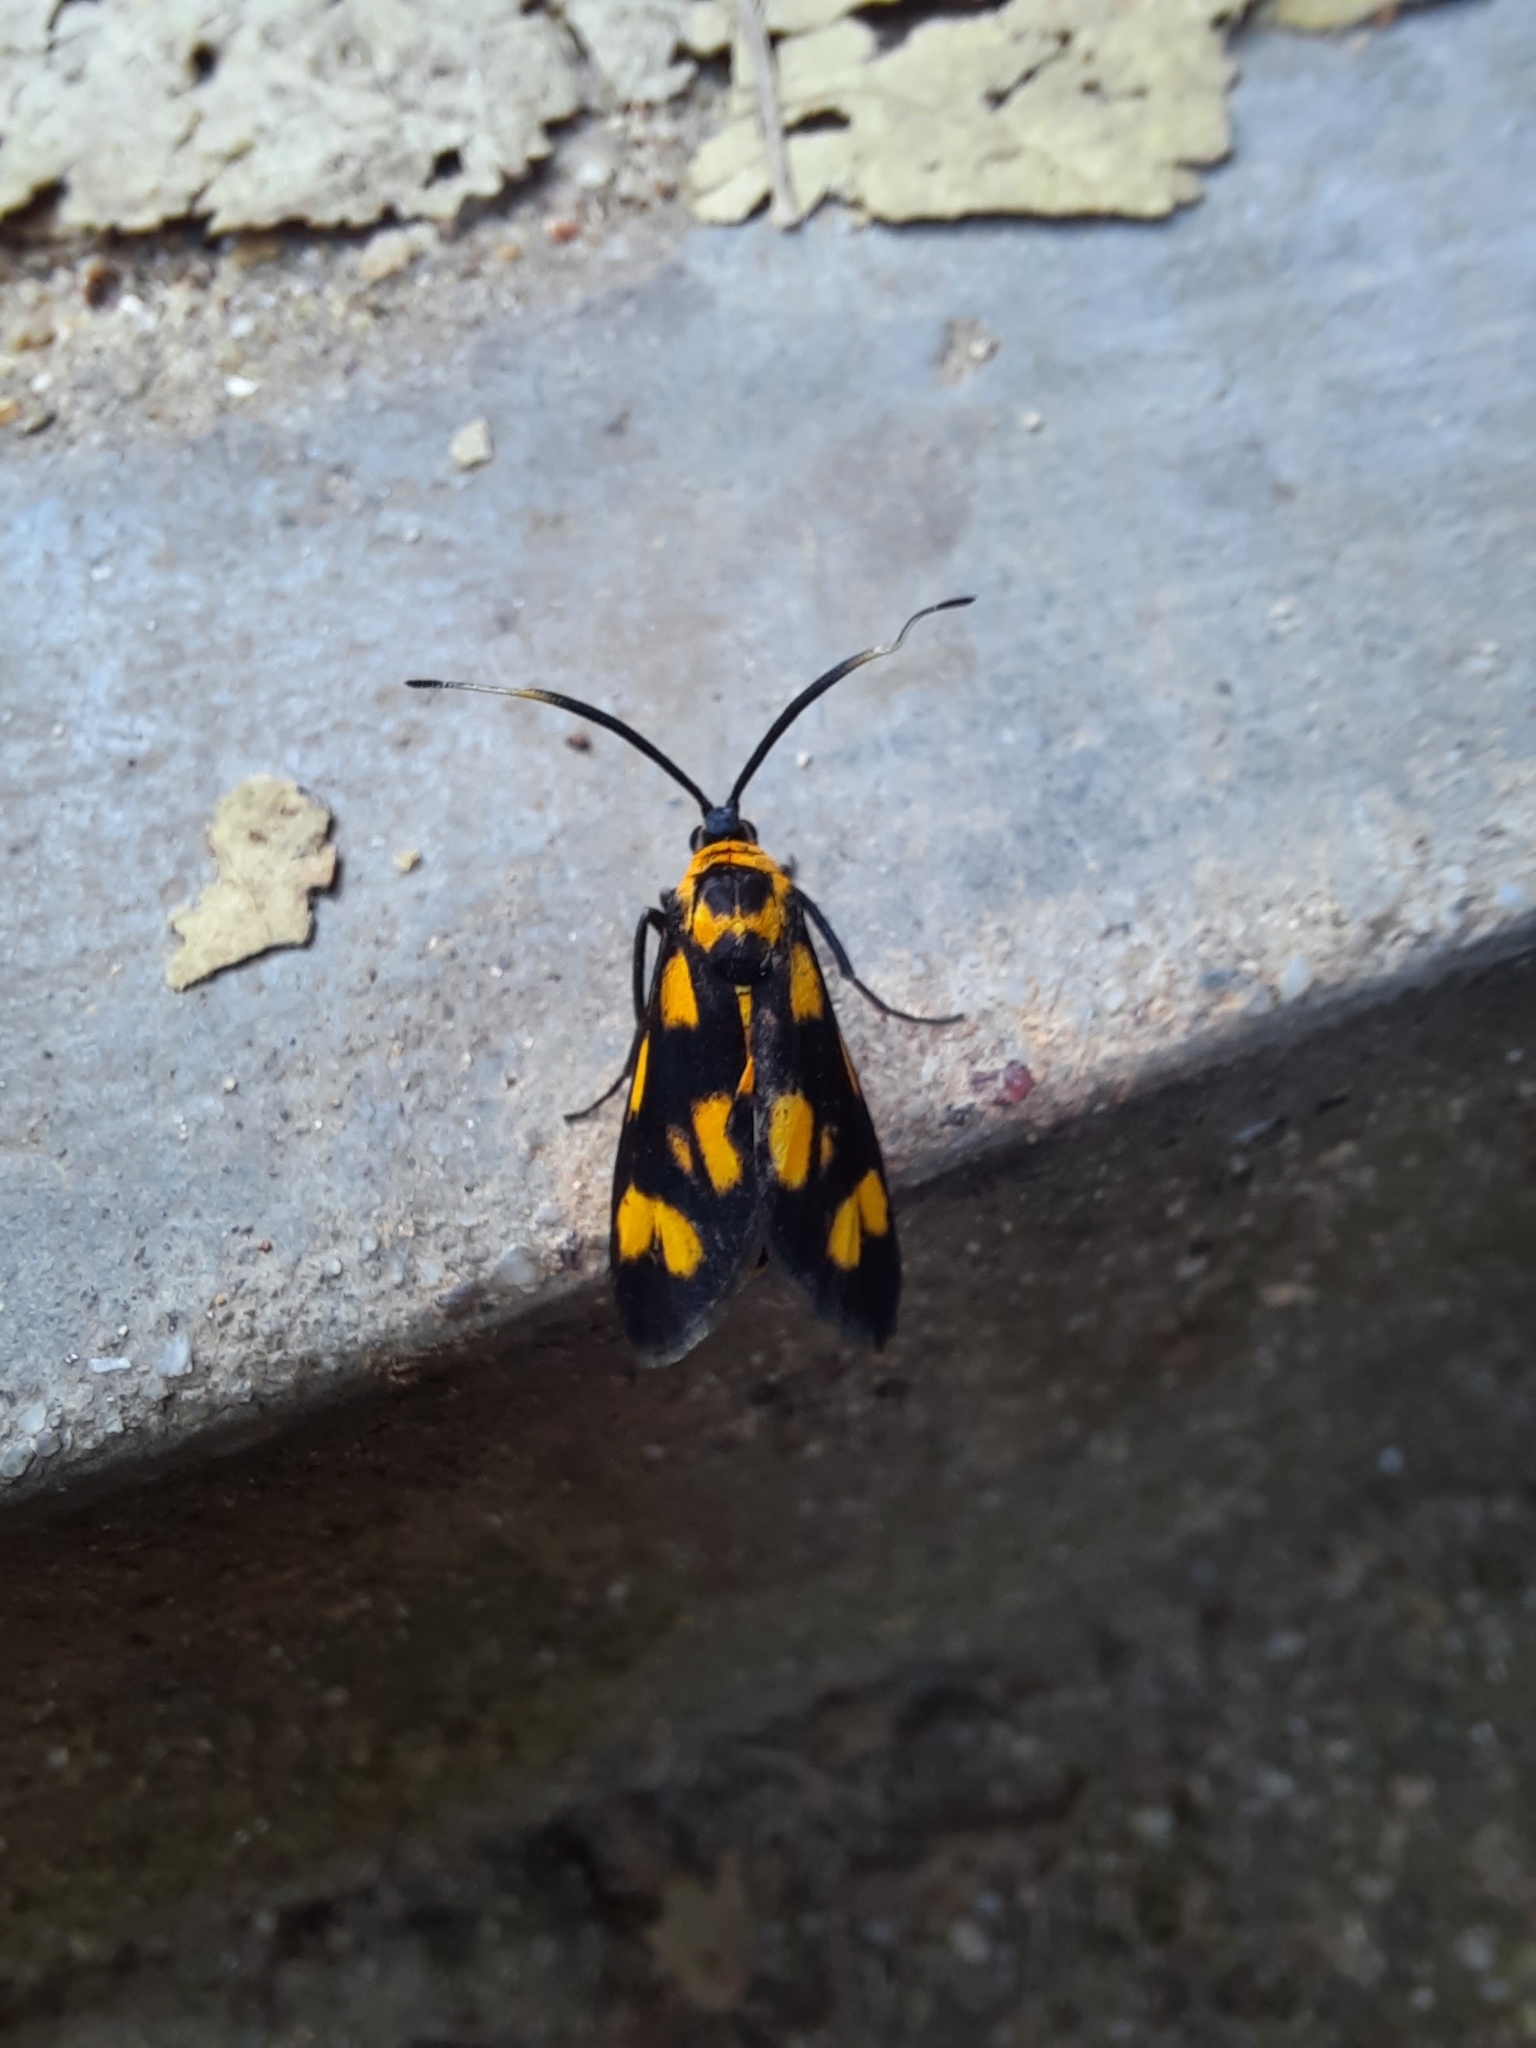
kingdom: Animalia
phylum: Arthropoda
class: Insecta
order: Lepidoptera
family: Zygaenidae
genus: Artona
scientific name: Artona walkeri
